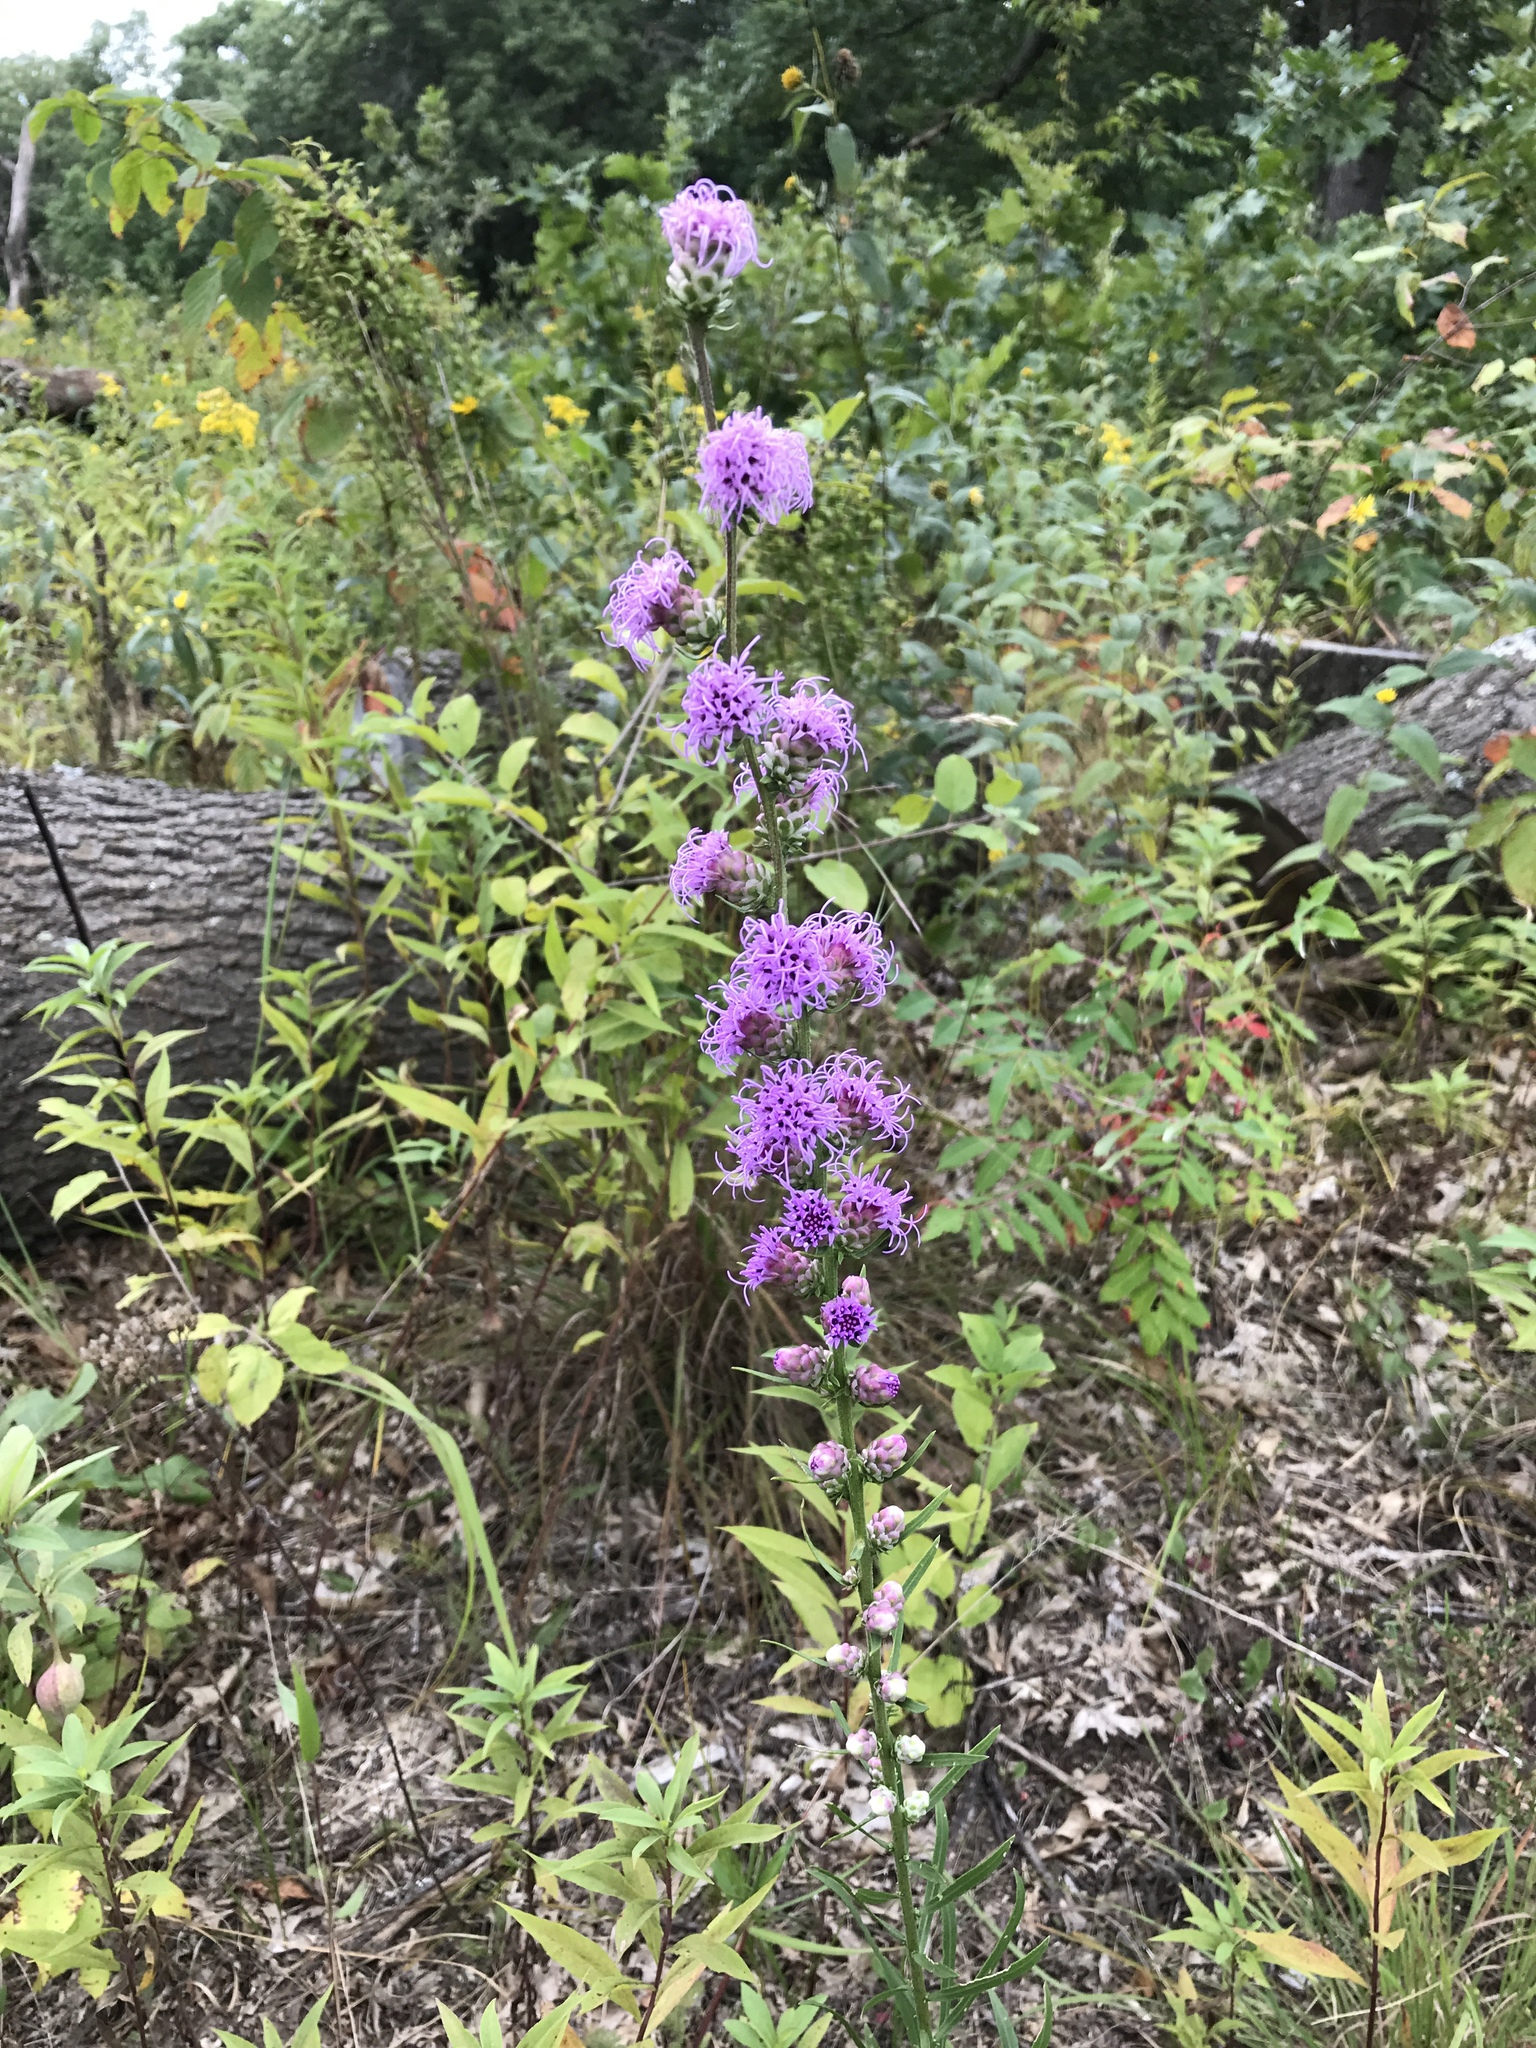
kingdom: Plantae
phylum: Tracheophyta
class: Magnoliopsida
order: Asterales
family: Asteraceae
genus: Liatris
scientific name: Liatris aspera
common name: Lacerate blazing-star
